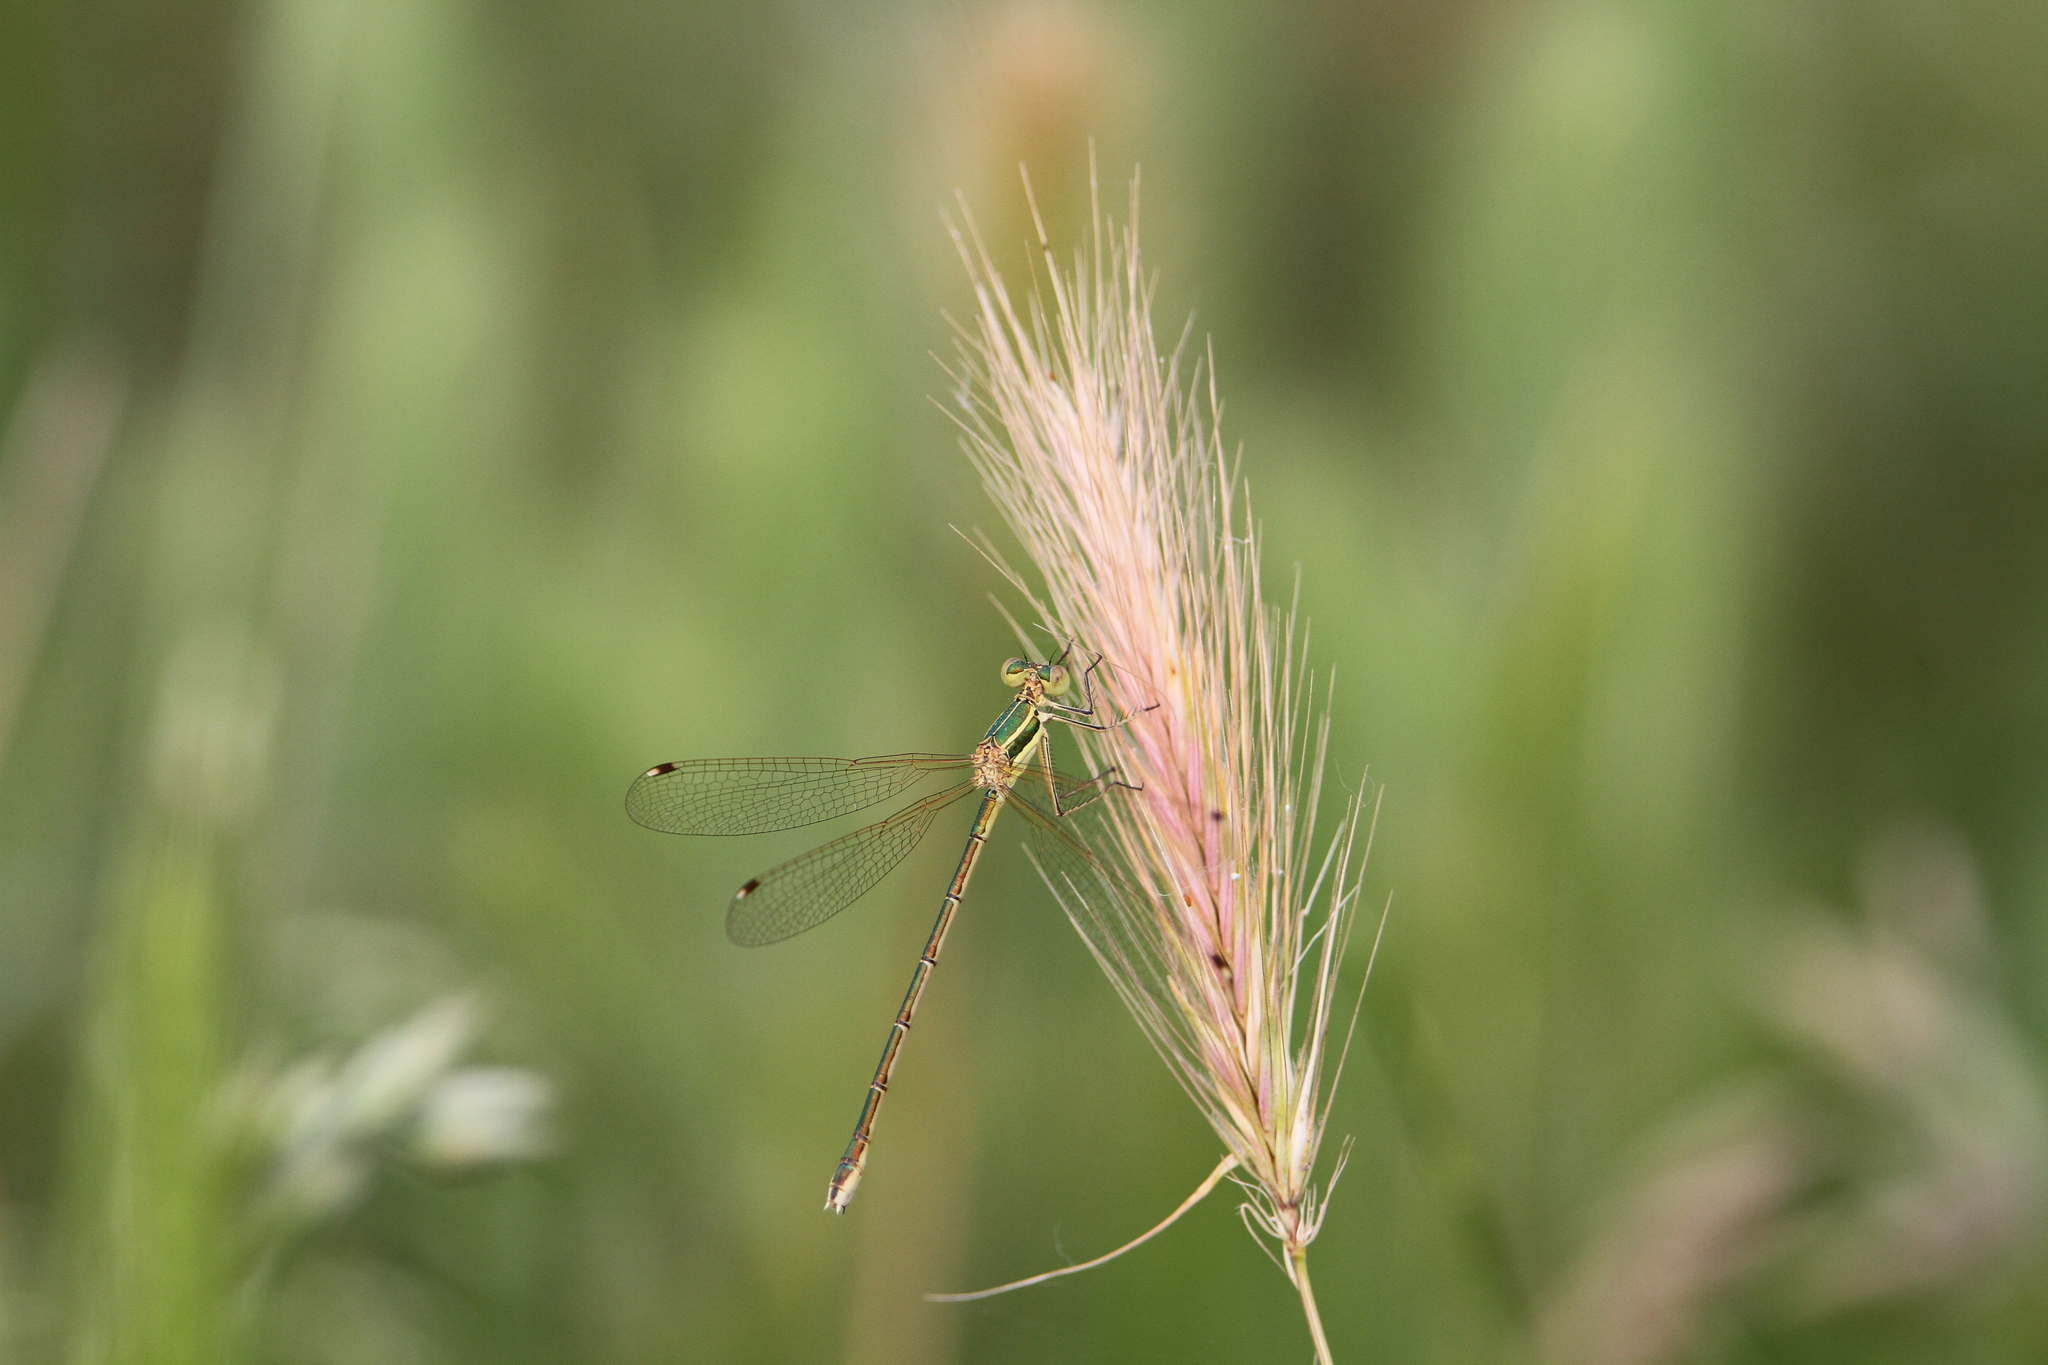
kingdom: Animalia
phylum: Arthropoda
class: Insecta
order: Odonata
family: Lestidae
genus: Lestes
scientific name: Lestes barbarus
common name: Migrant spreadwing
